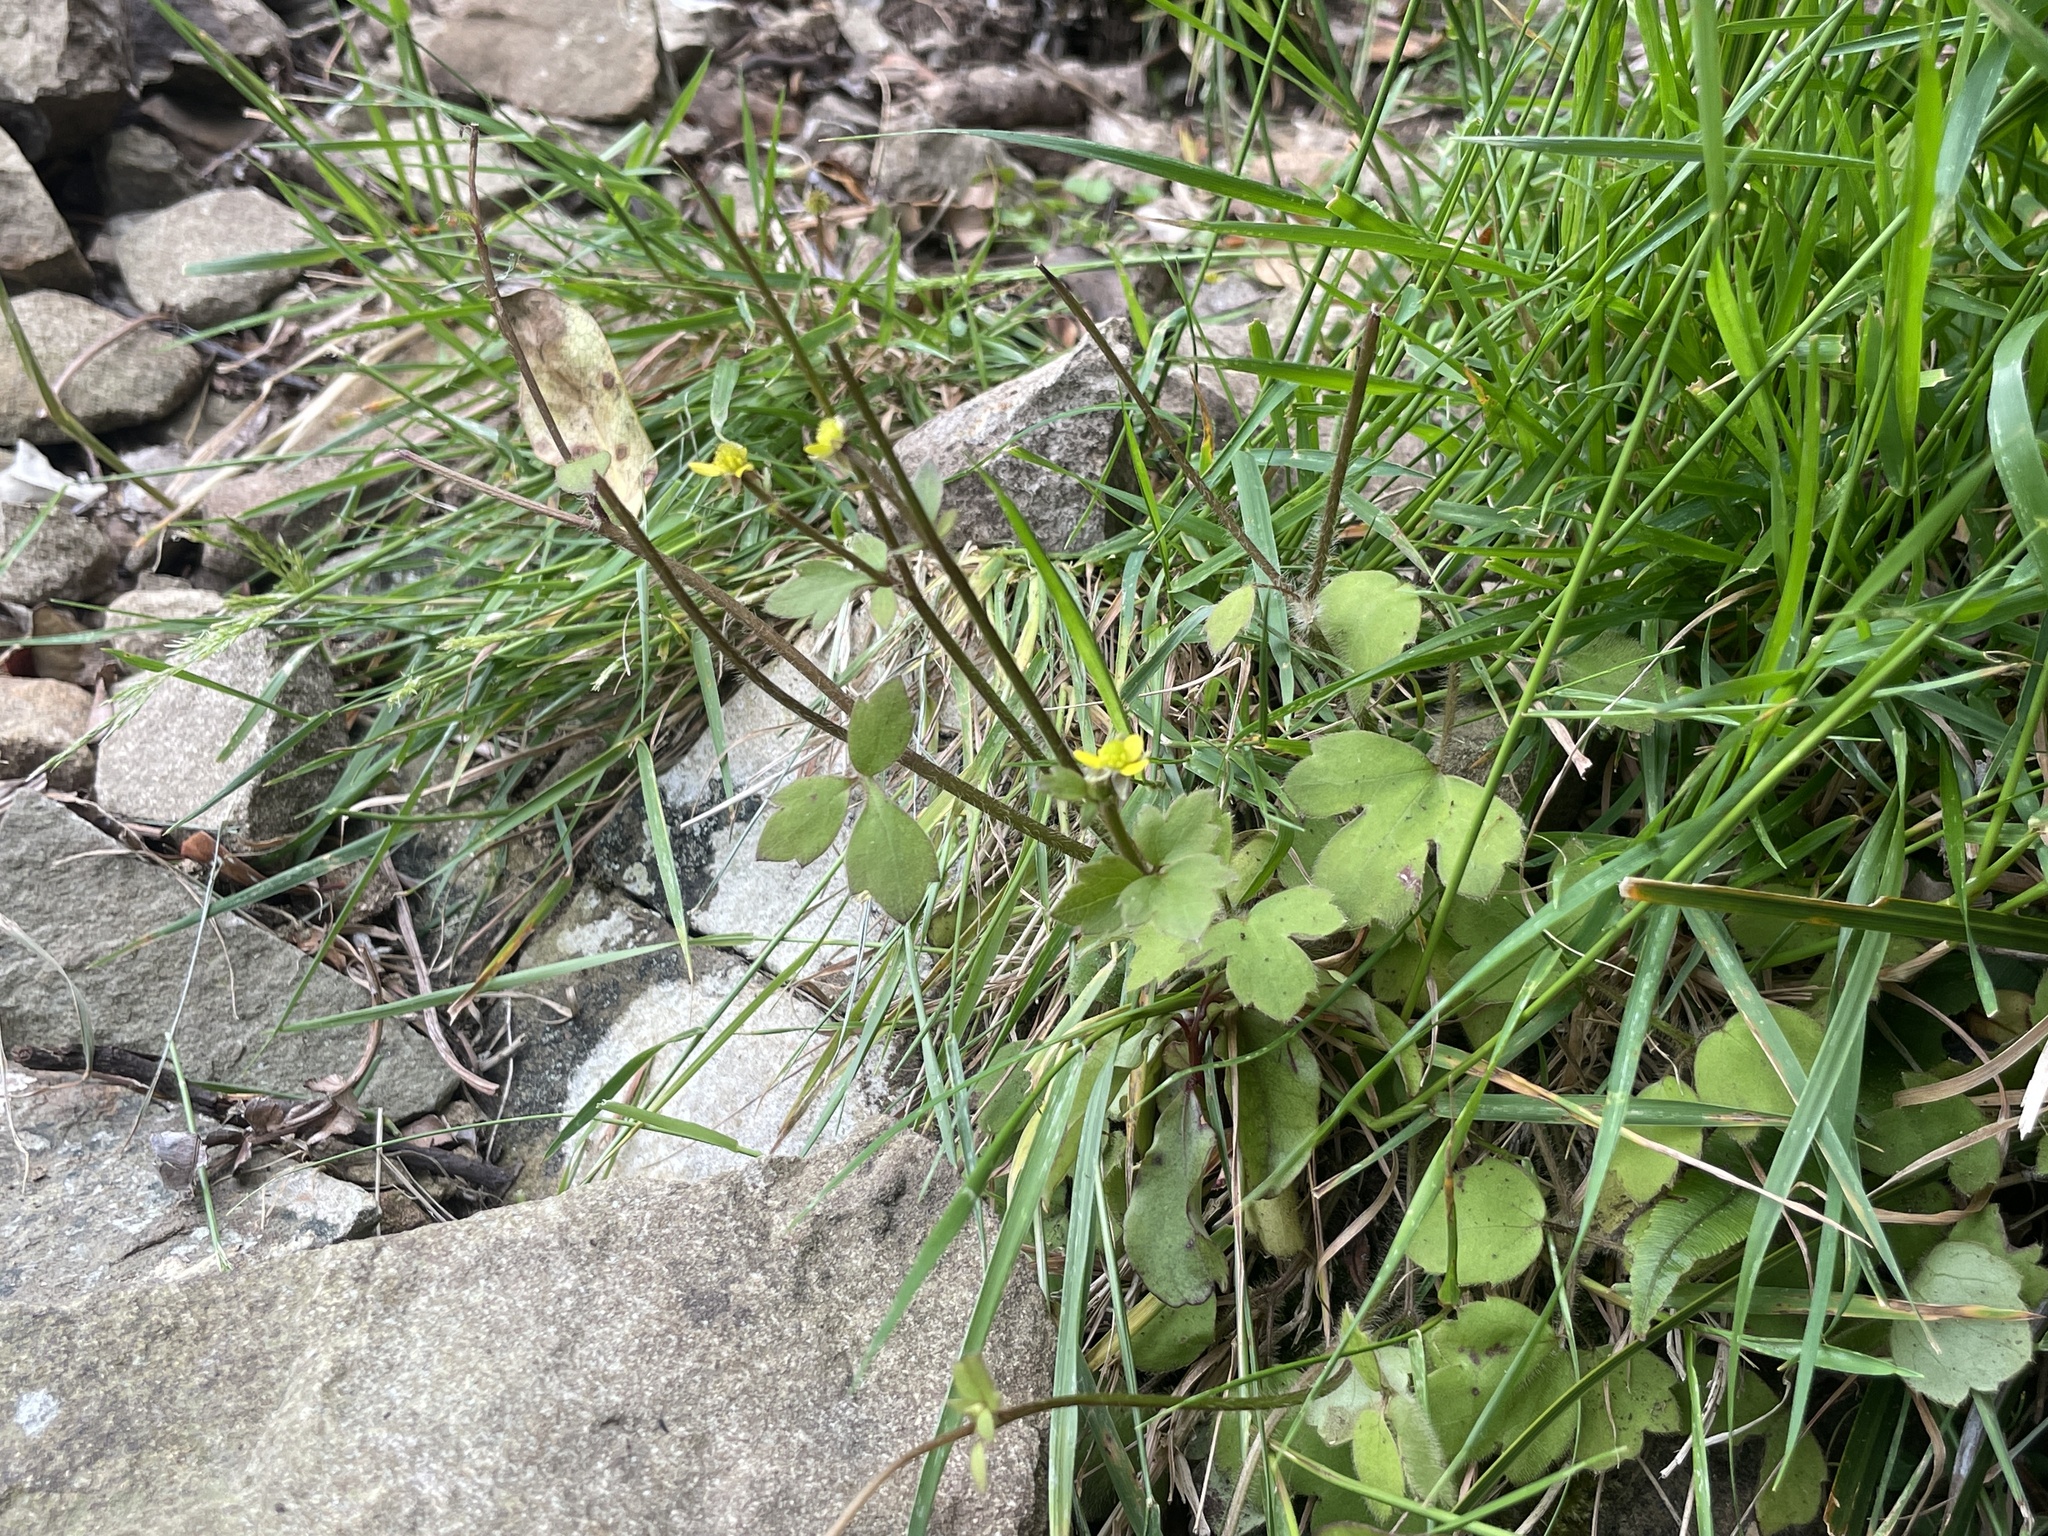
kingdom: Plantae
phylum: Tracheophyta
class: Magnoliopsida
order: Ranunculales
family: Ranunculaceae
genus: Ranunculus
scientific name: Ranunculus reflexus
